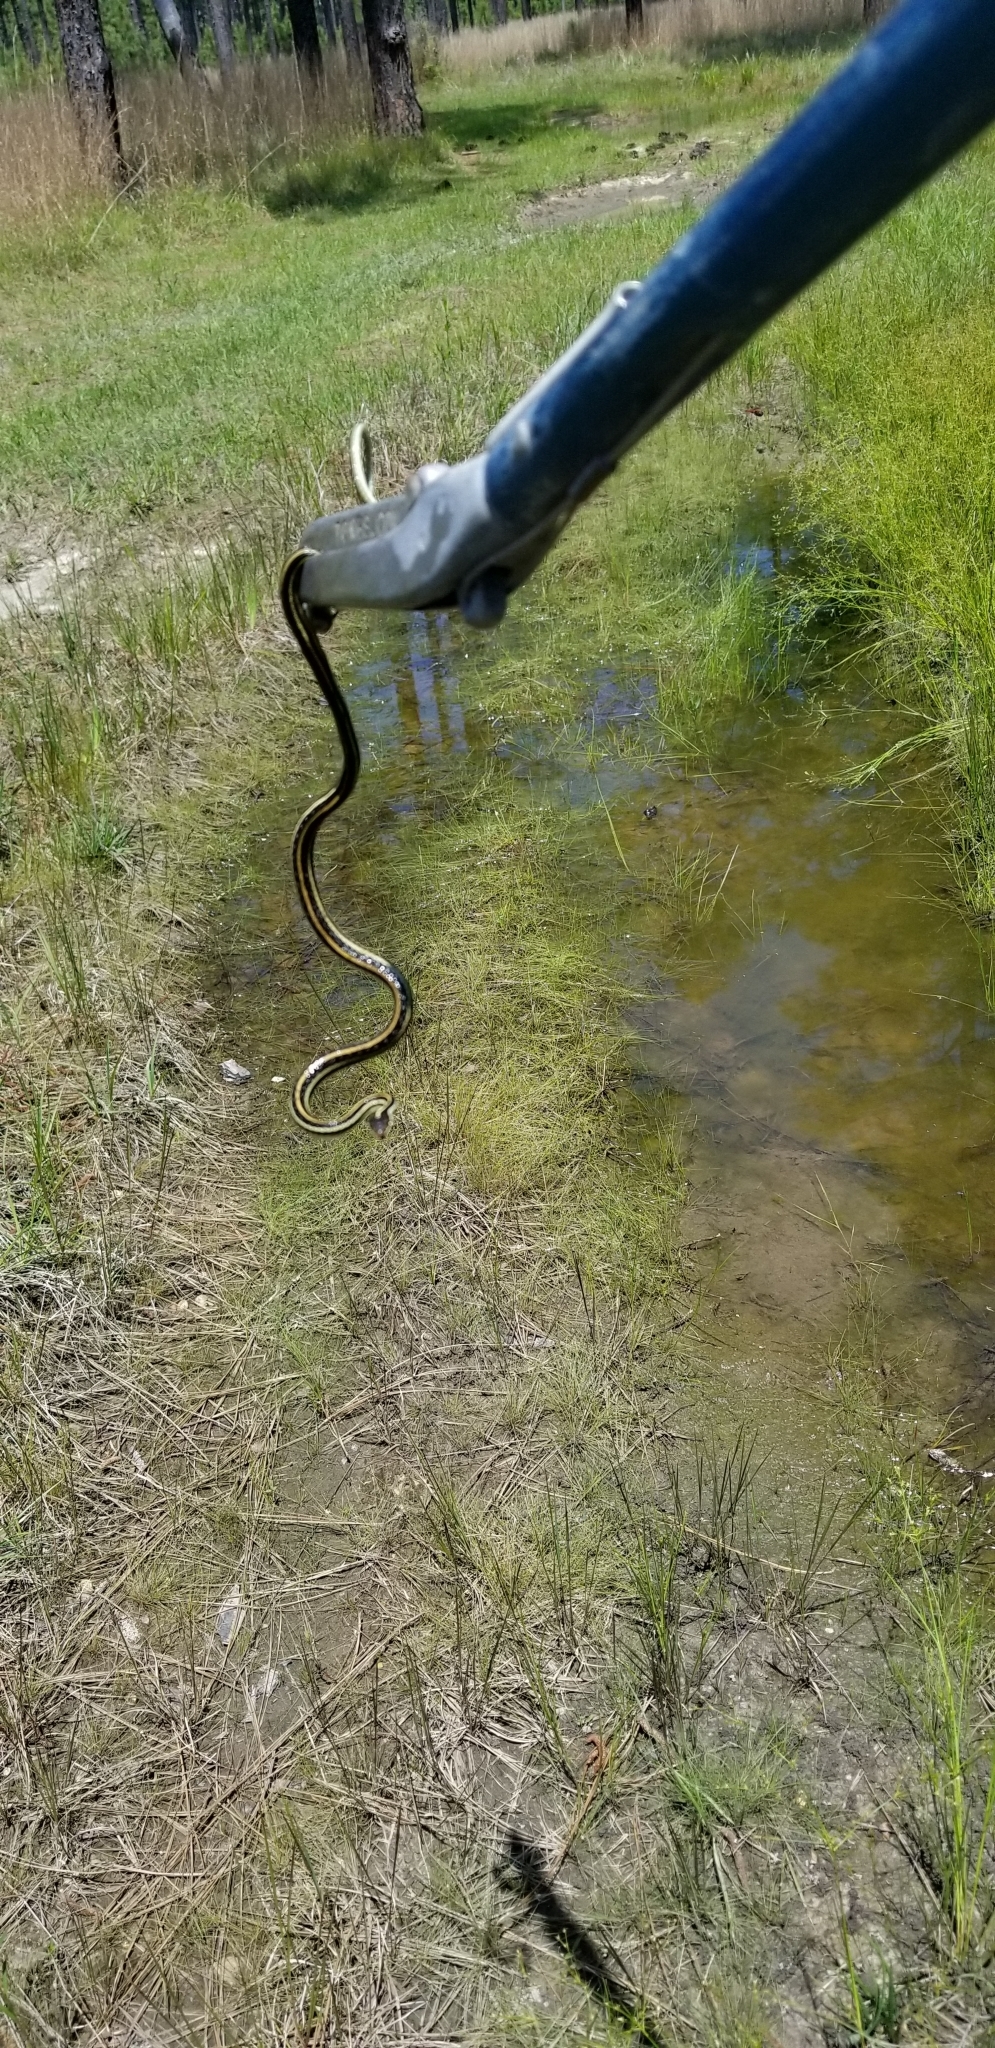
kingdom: Animalia
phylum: Chordata
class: Squamata
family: Colubridae
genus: Thamnophis
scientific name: Thamnophis proximus
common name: Western ribbon snake
